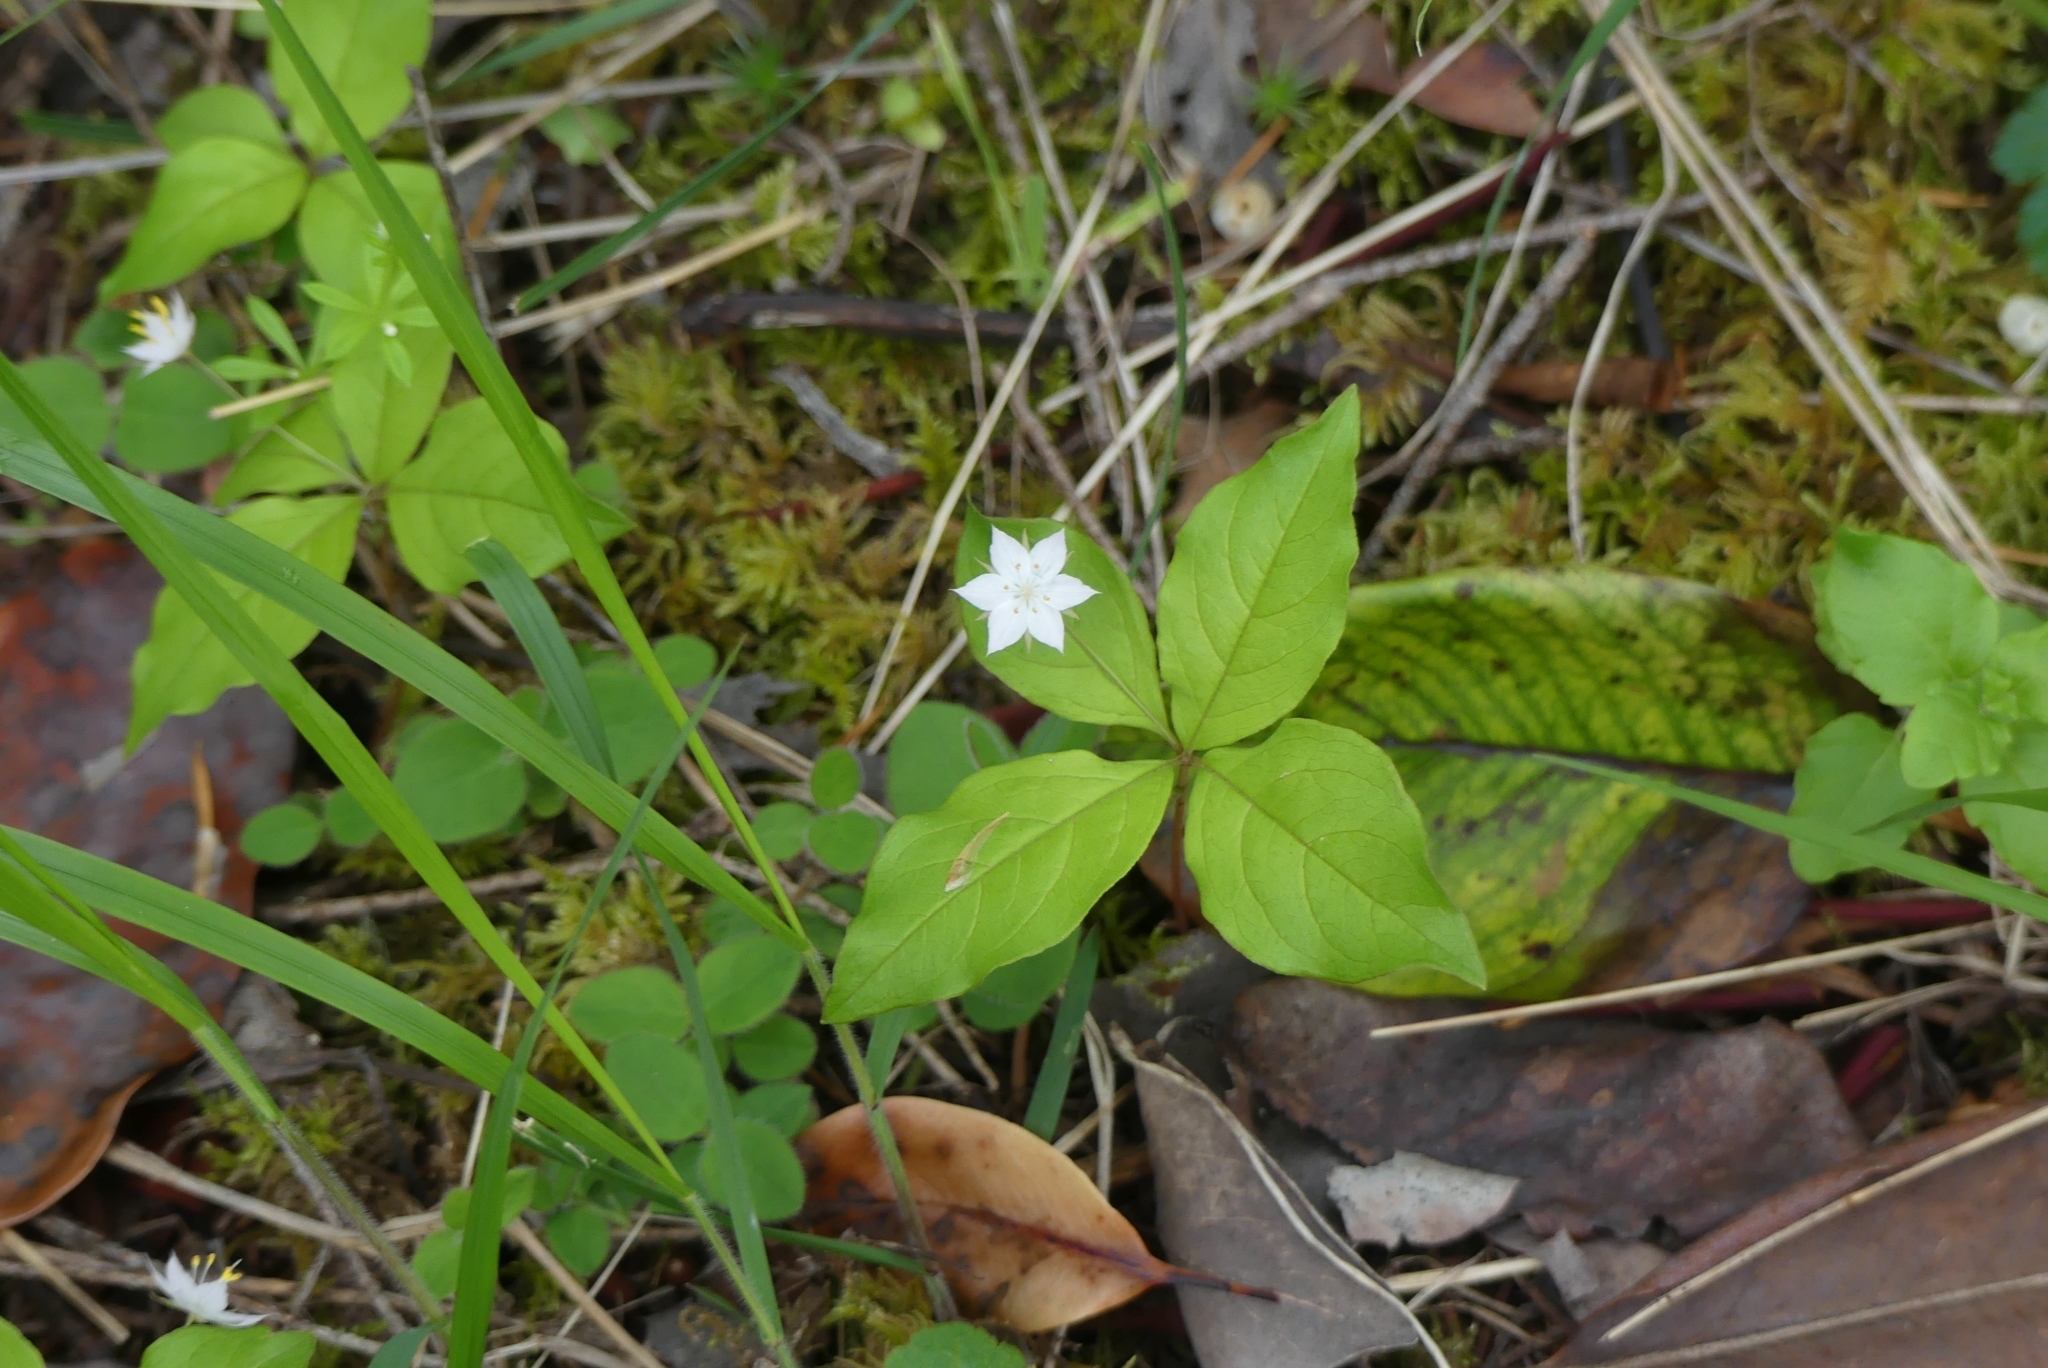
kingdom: Plantae
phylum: Tracheophyta
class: Magnoliopsida
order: Ericales
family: Primulaceae
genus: Lysimachia
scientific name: Lysimachia latifolia
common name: Pacific starflower
